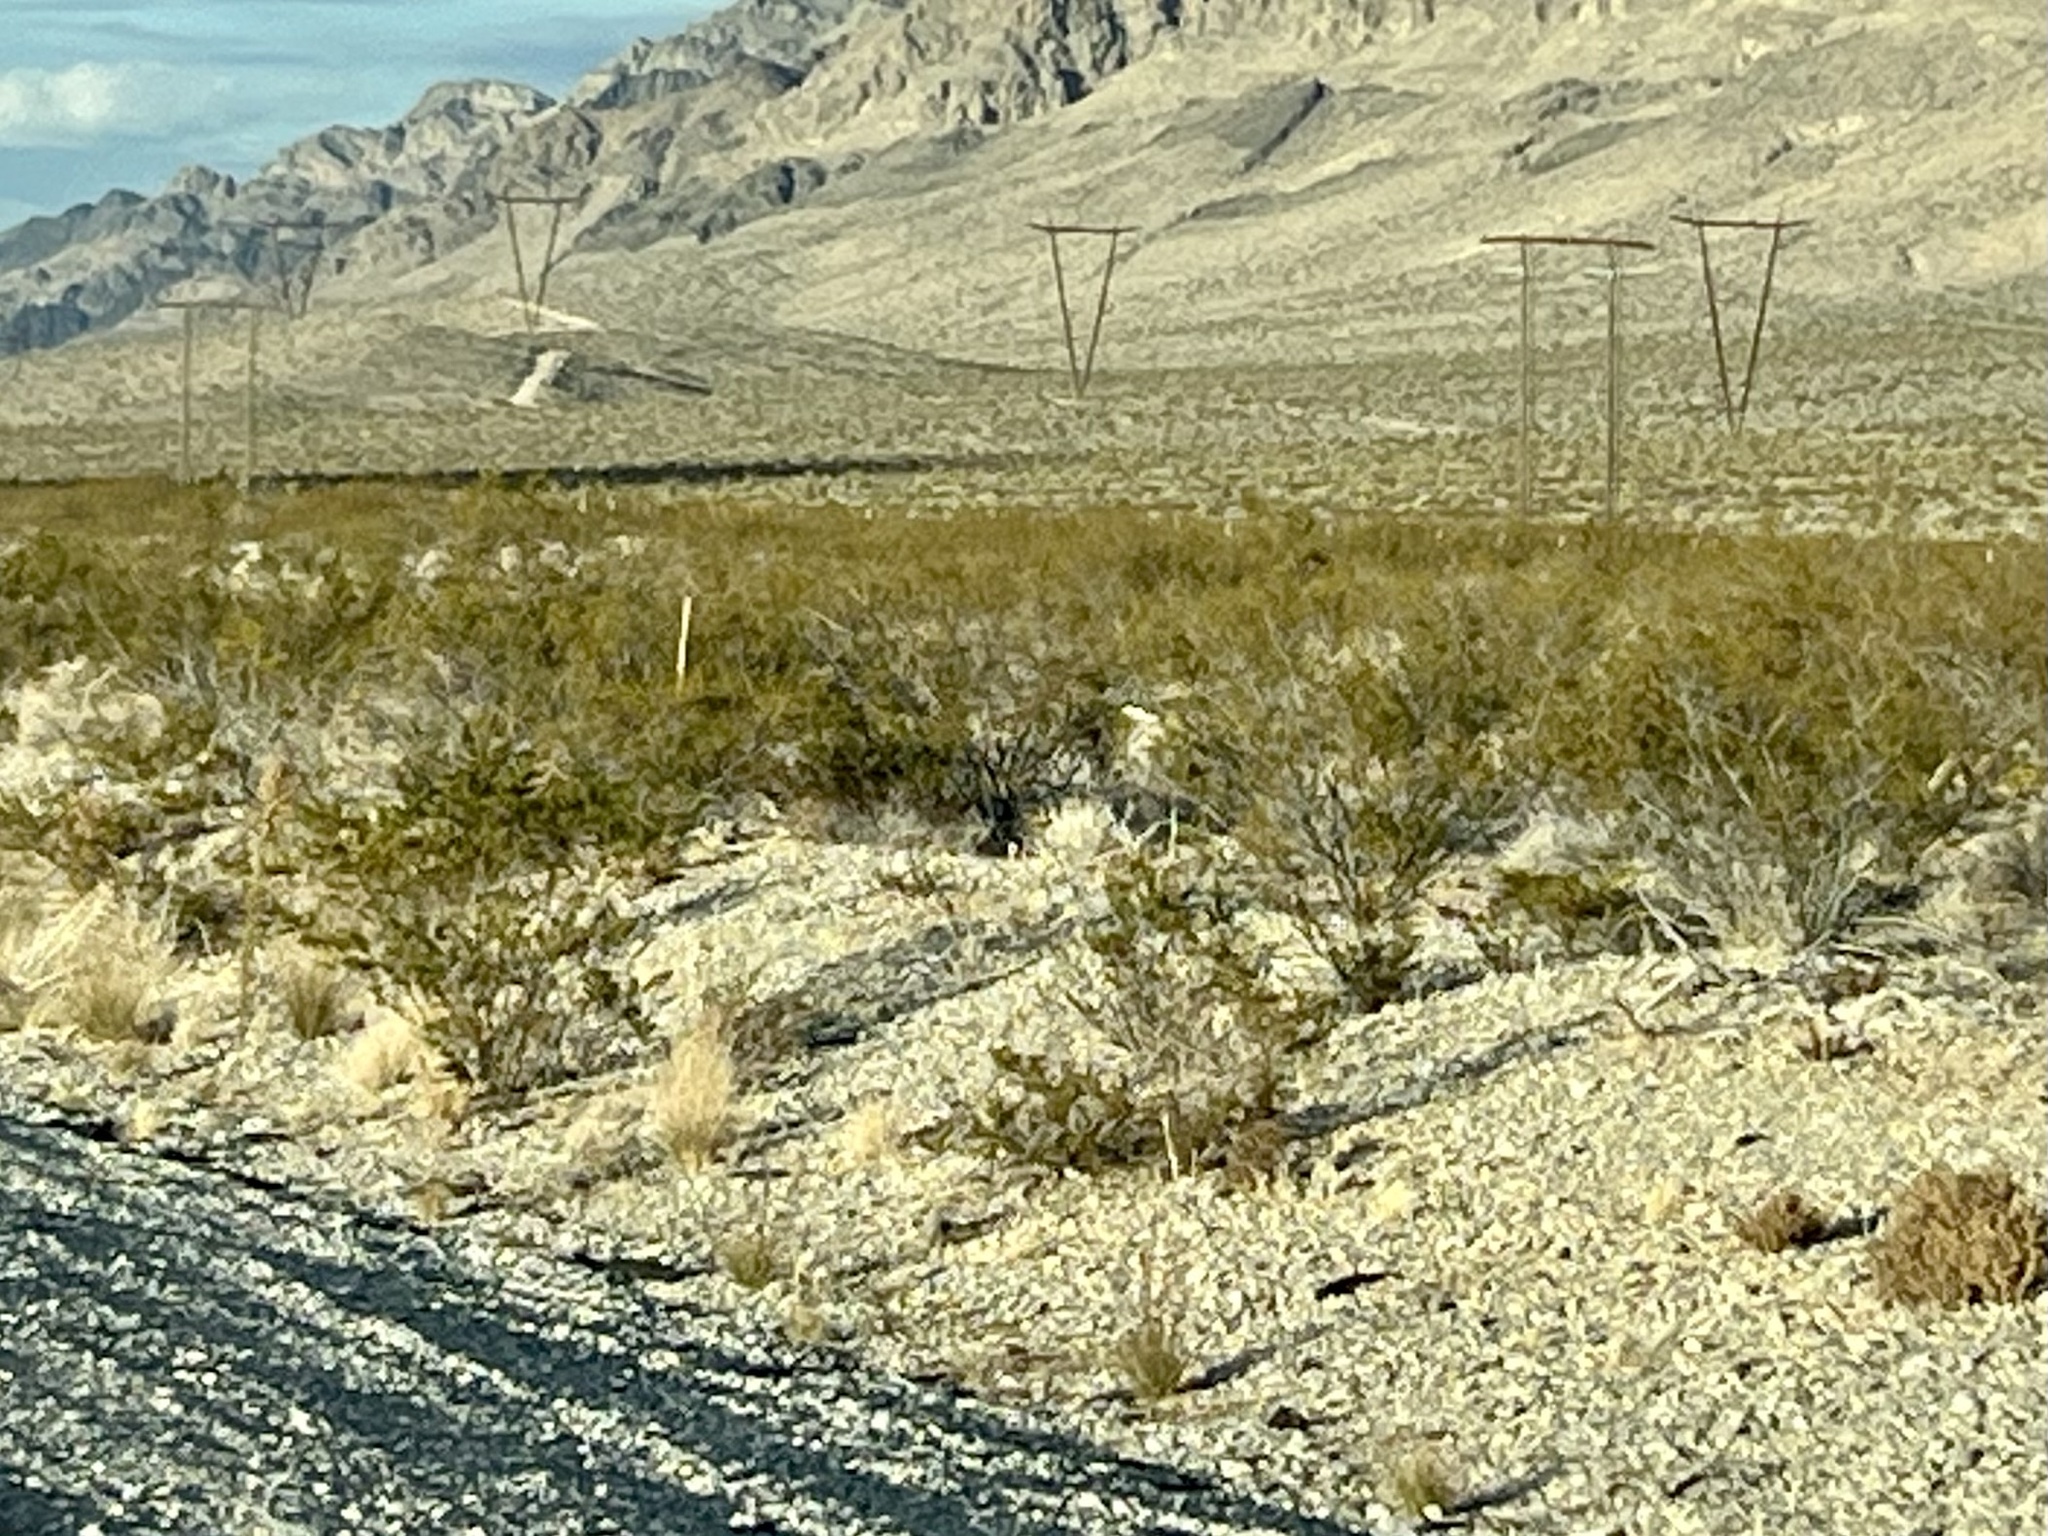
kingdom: Plantae
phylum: Tracheophyta
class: Magnoliopsida
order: Zygophyllales
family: Zygophyllaceae
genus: Larrea
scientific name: Larrea tridentata
